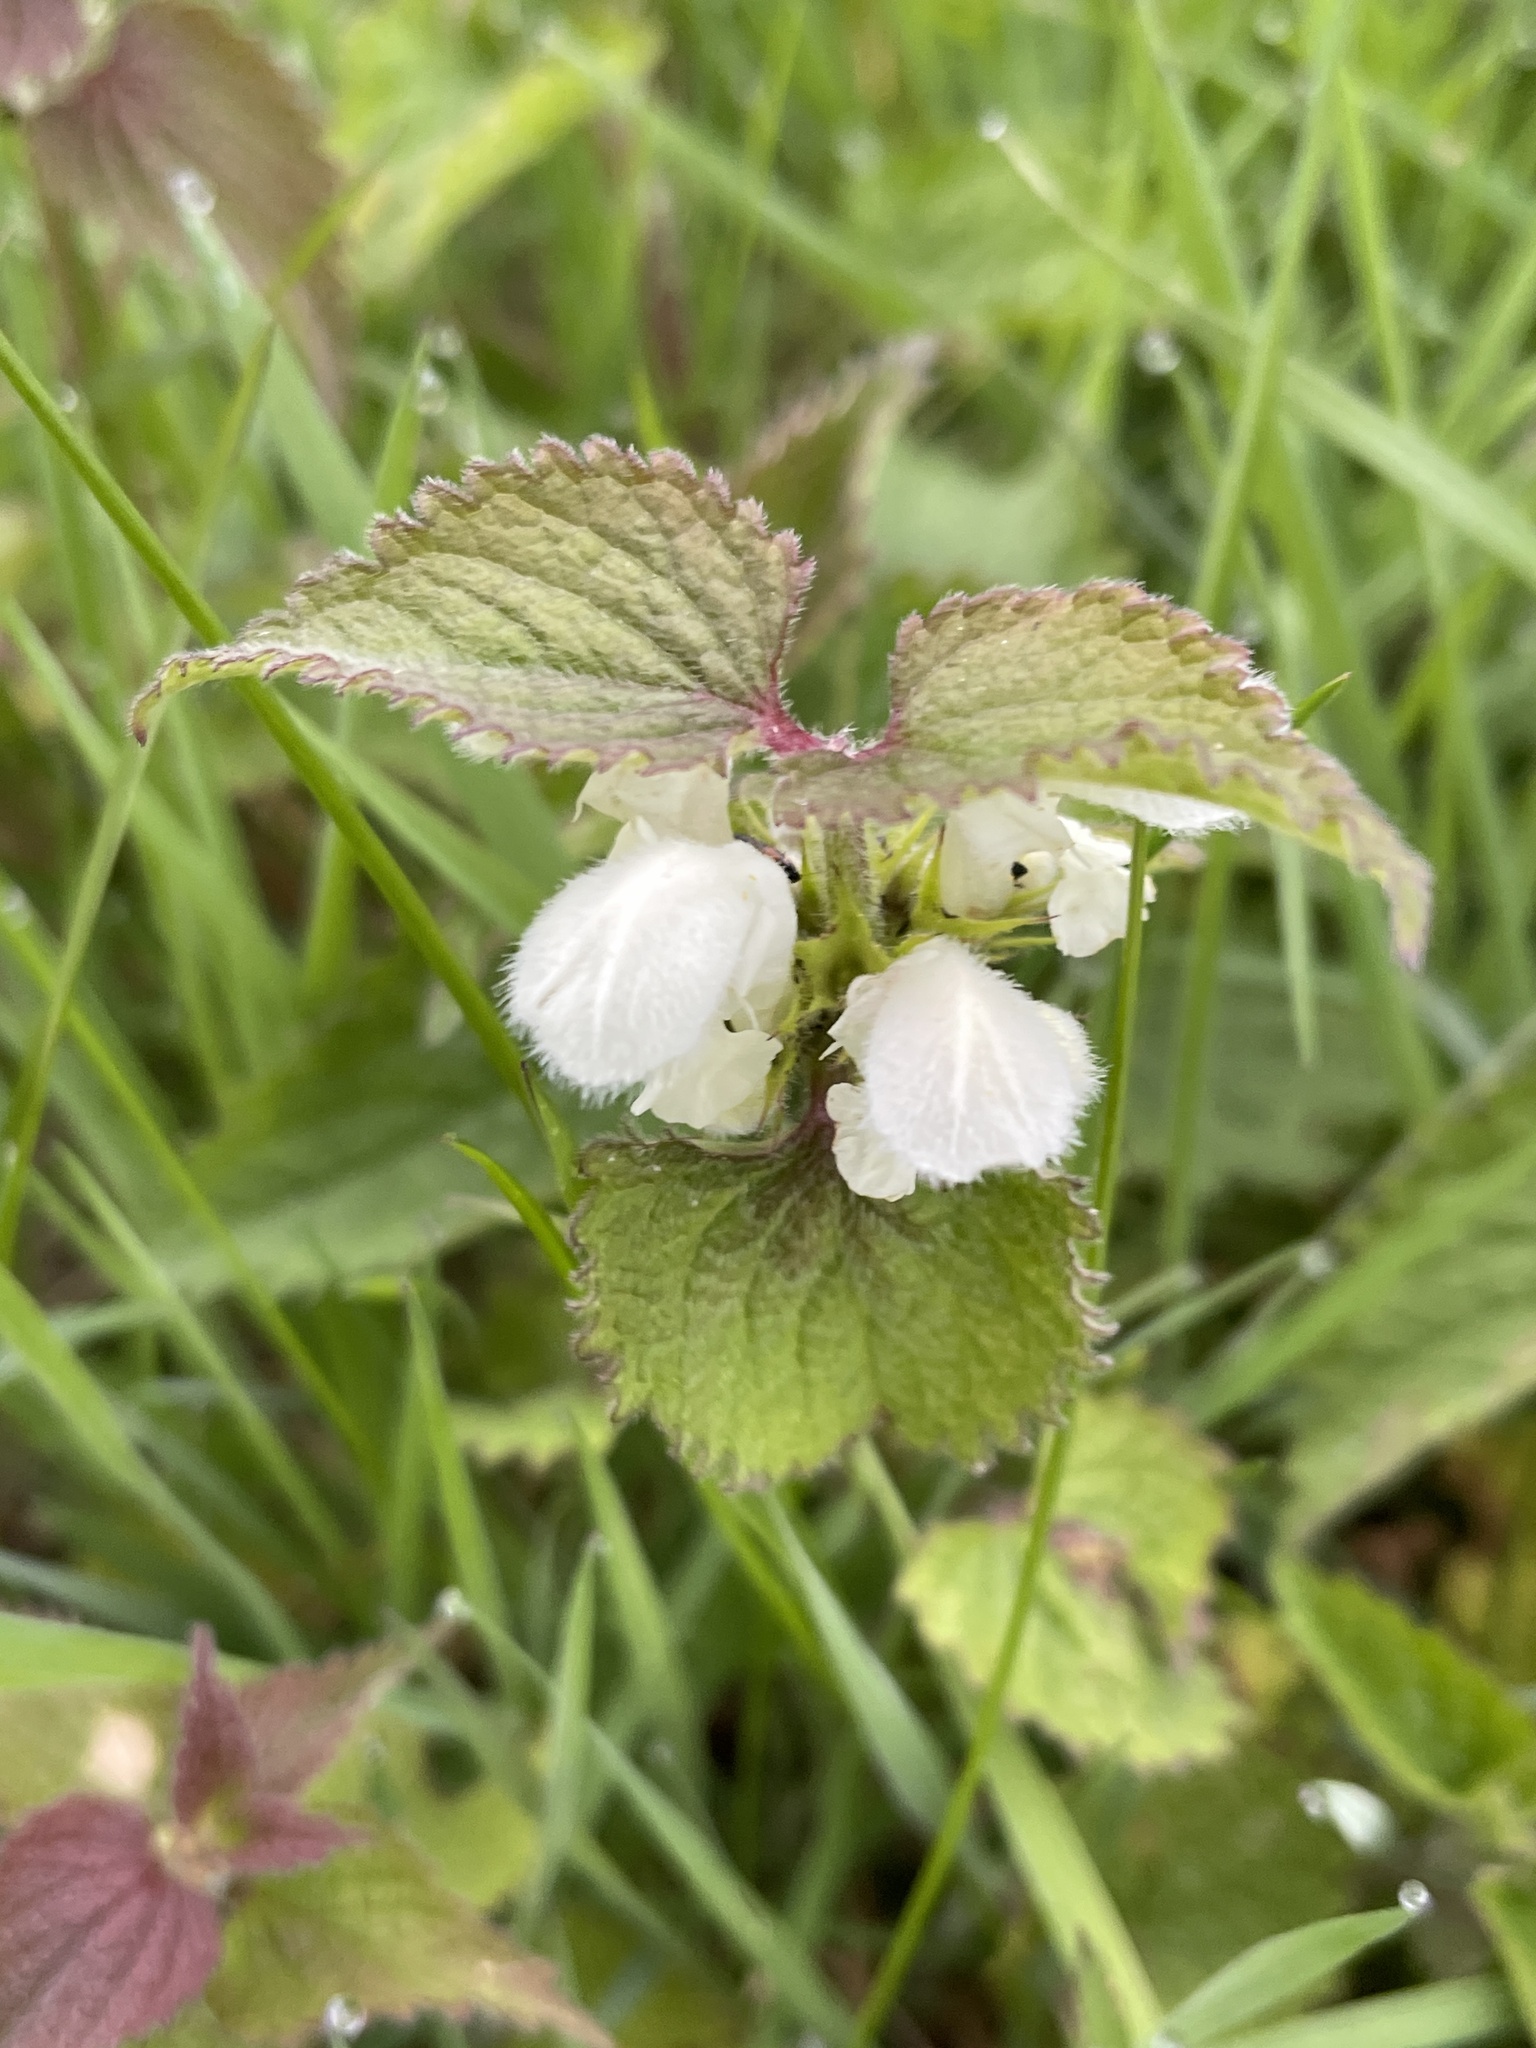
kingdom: Plantae
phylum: Tracheophyta
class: Magnoliopsida
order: Lamiales
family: Lamiaceae
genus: Lamium
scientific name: Lamium album
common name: White dead-nettle
